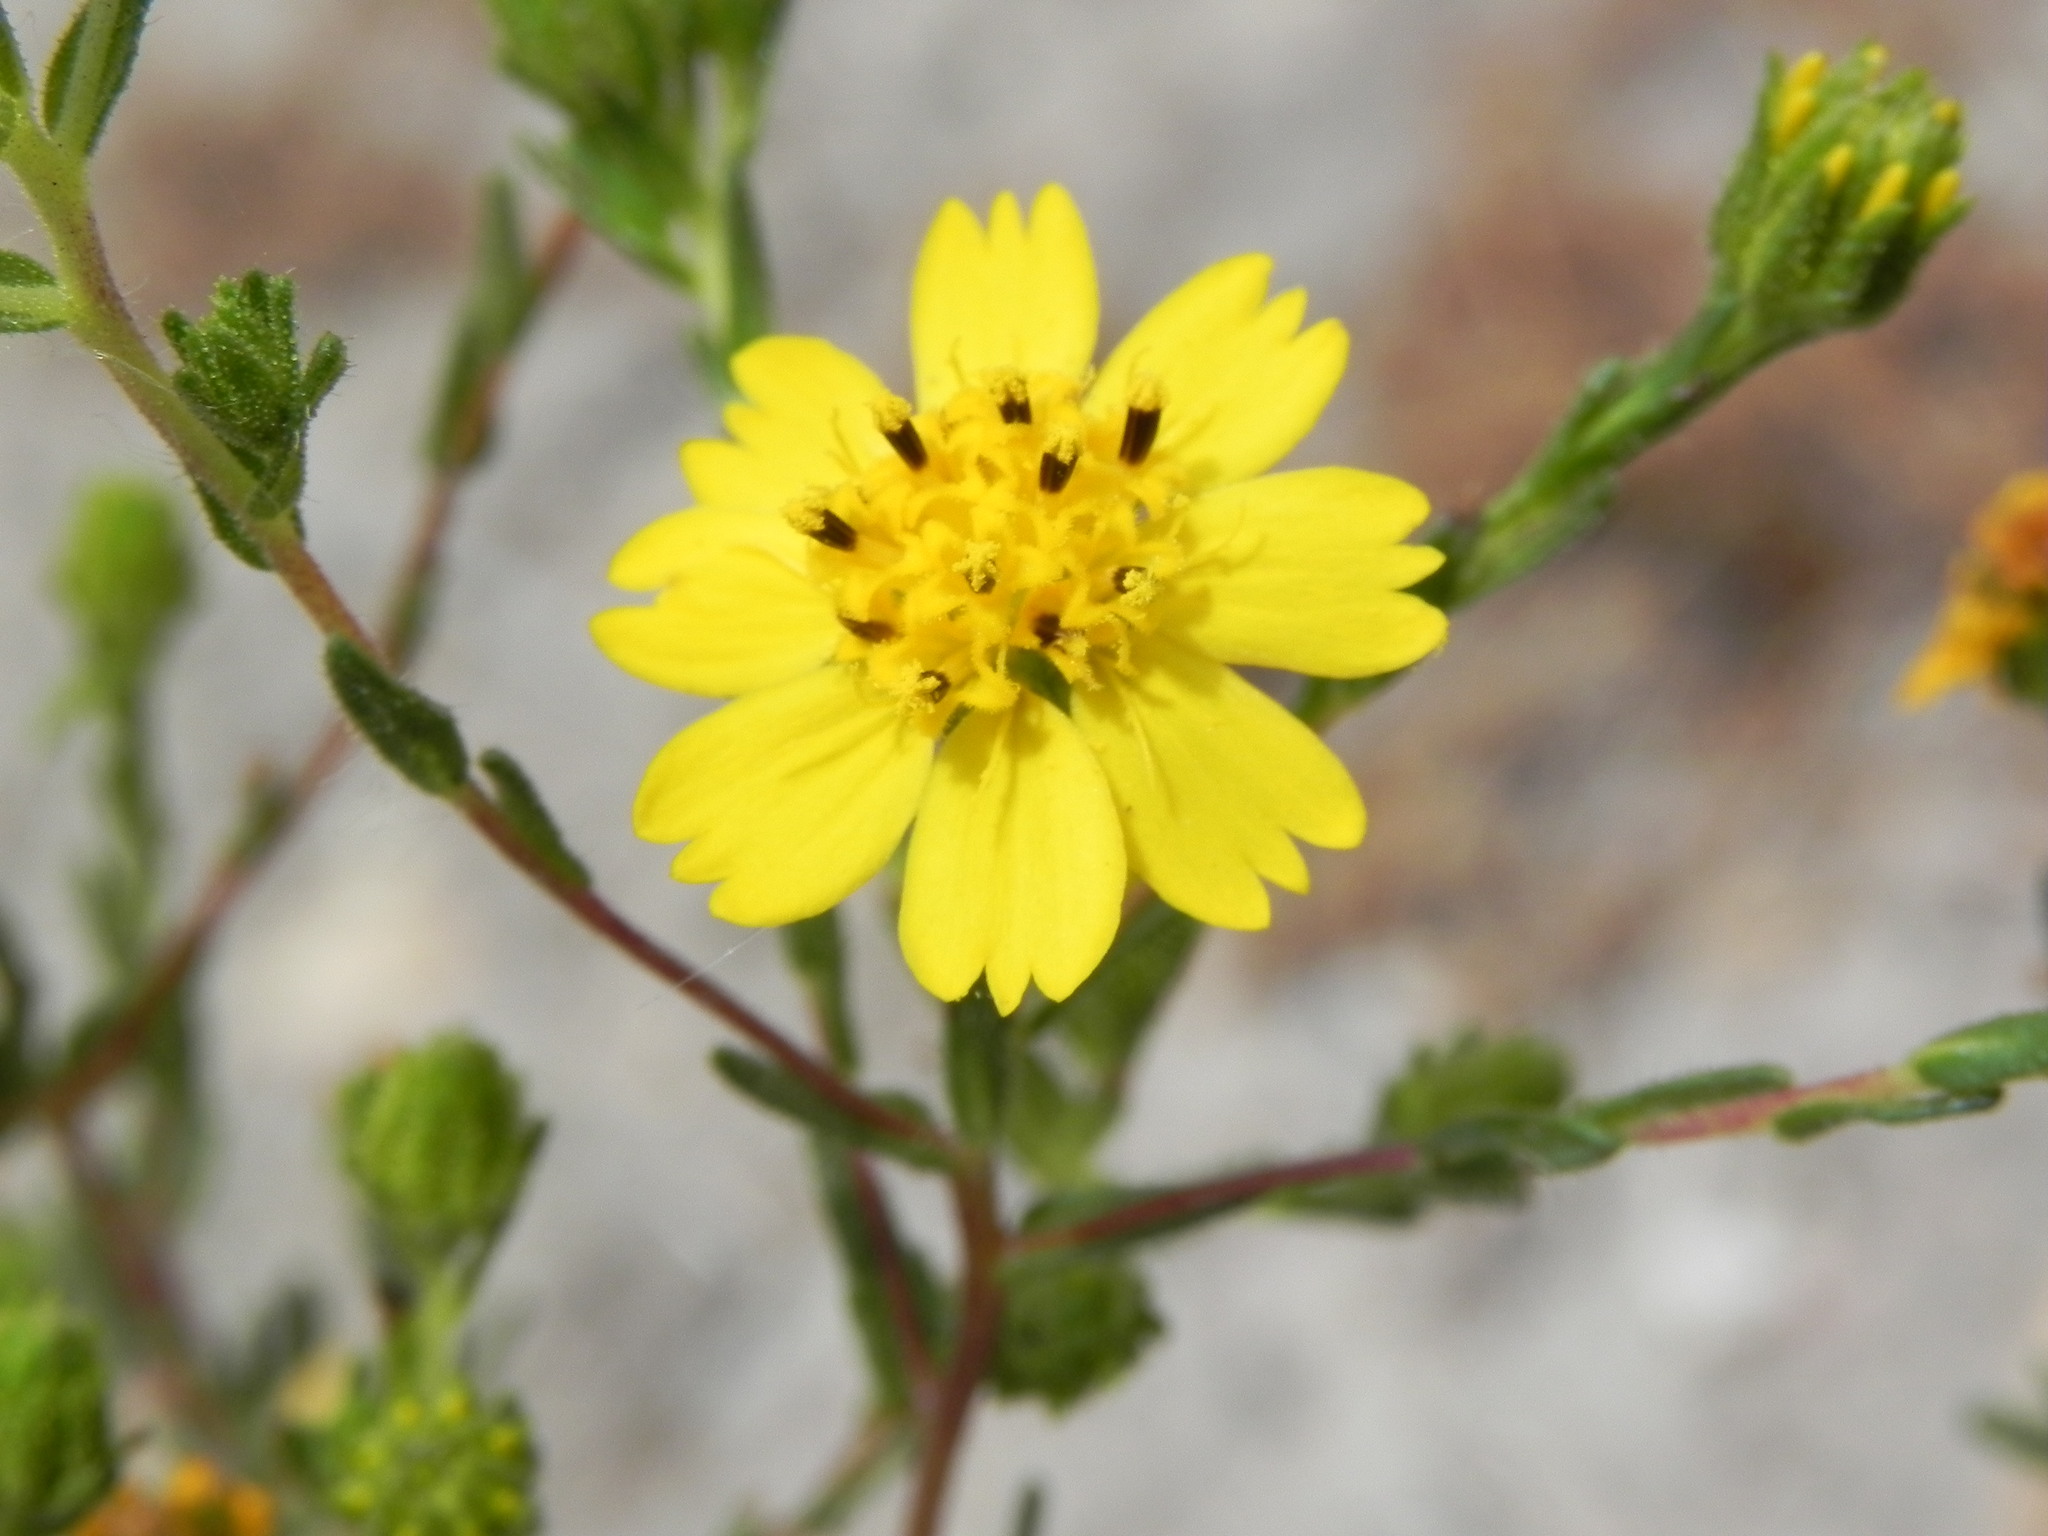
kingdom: Plantae
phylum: Tracheophyta
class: Magnoliopsida
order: Asterales
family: Asteraceae
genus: Deinandra
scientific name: Deinandra conjugens
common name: Otay tarplant
